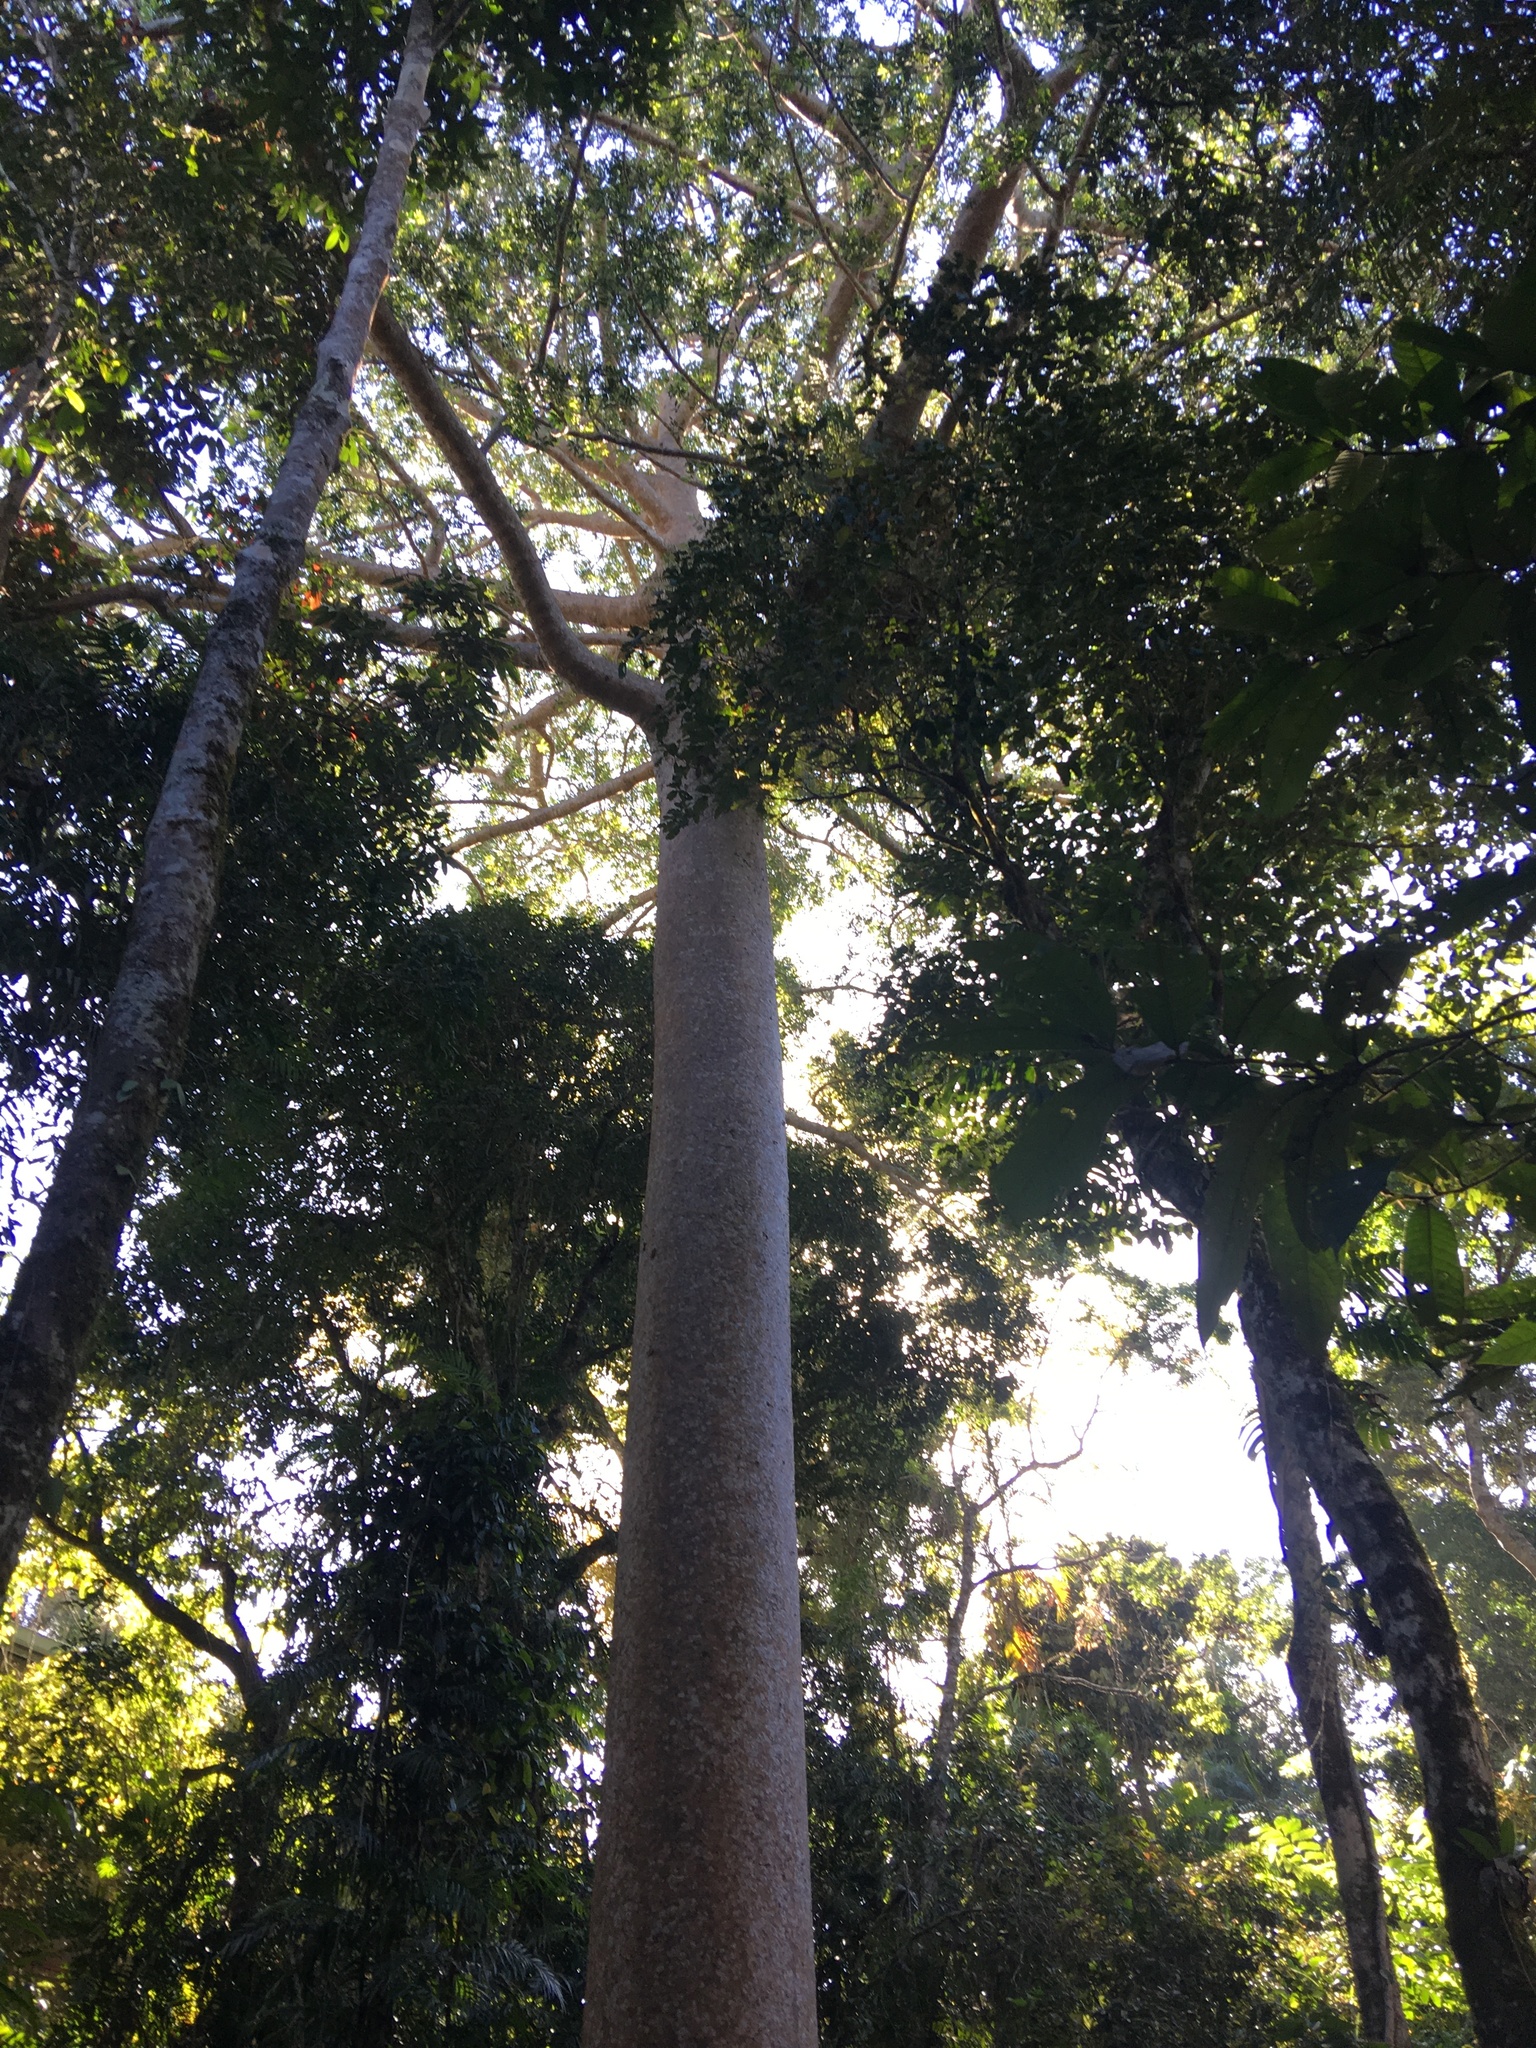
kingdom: Plantae
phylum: Tracheophyta
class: Pinopsida
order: Pinales
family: Araucariaceae
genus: Agathis
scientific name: Agathis robusta
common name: Australian-kauri
